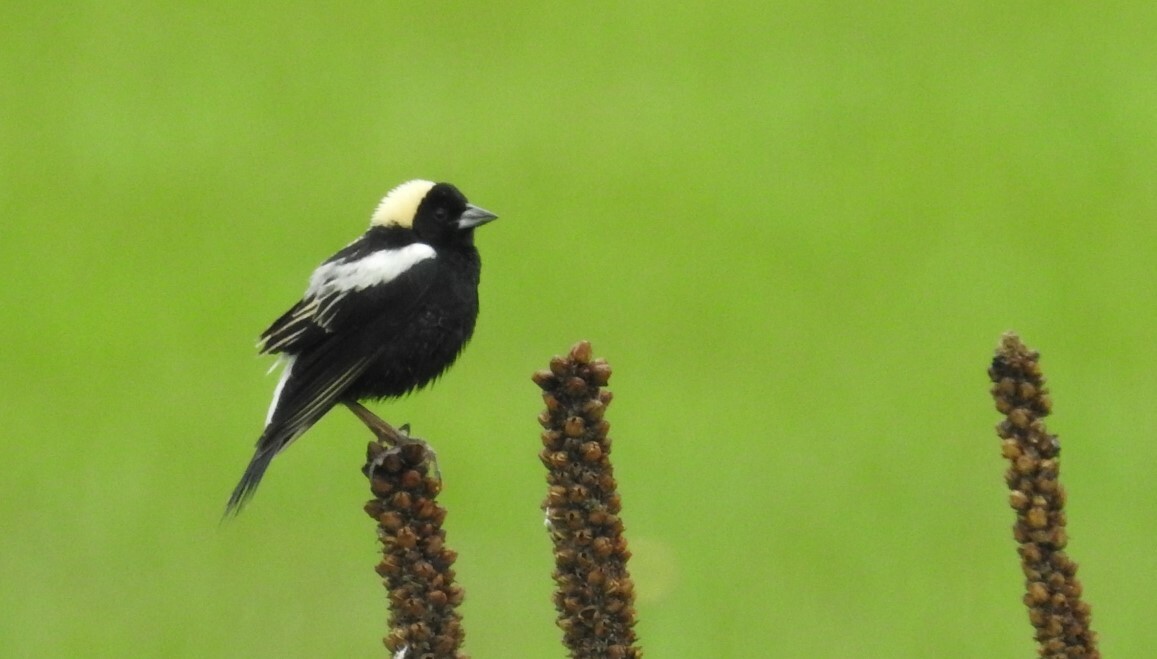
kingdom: Animalia
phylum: Chordata
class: Aves
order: Passeriformes
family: Icteridae
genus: Dolichonyx
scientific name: Dolichonyx oryzivorus
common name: Bobolink
